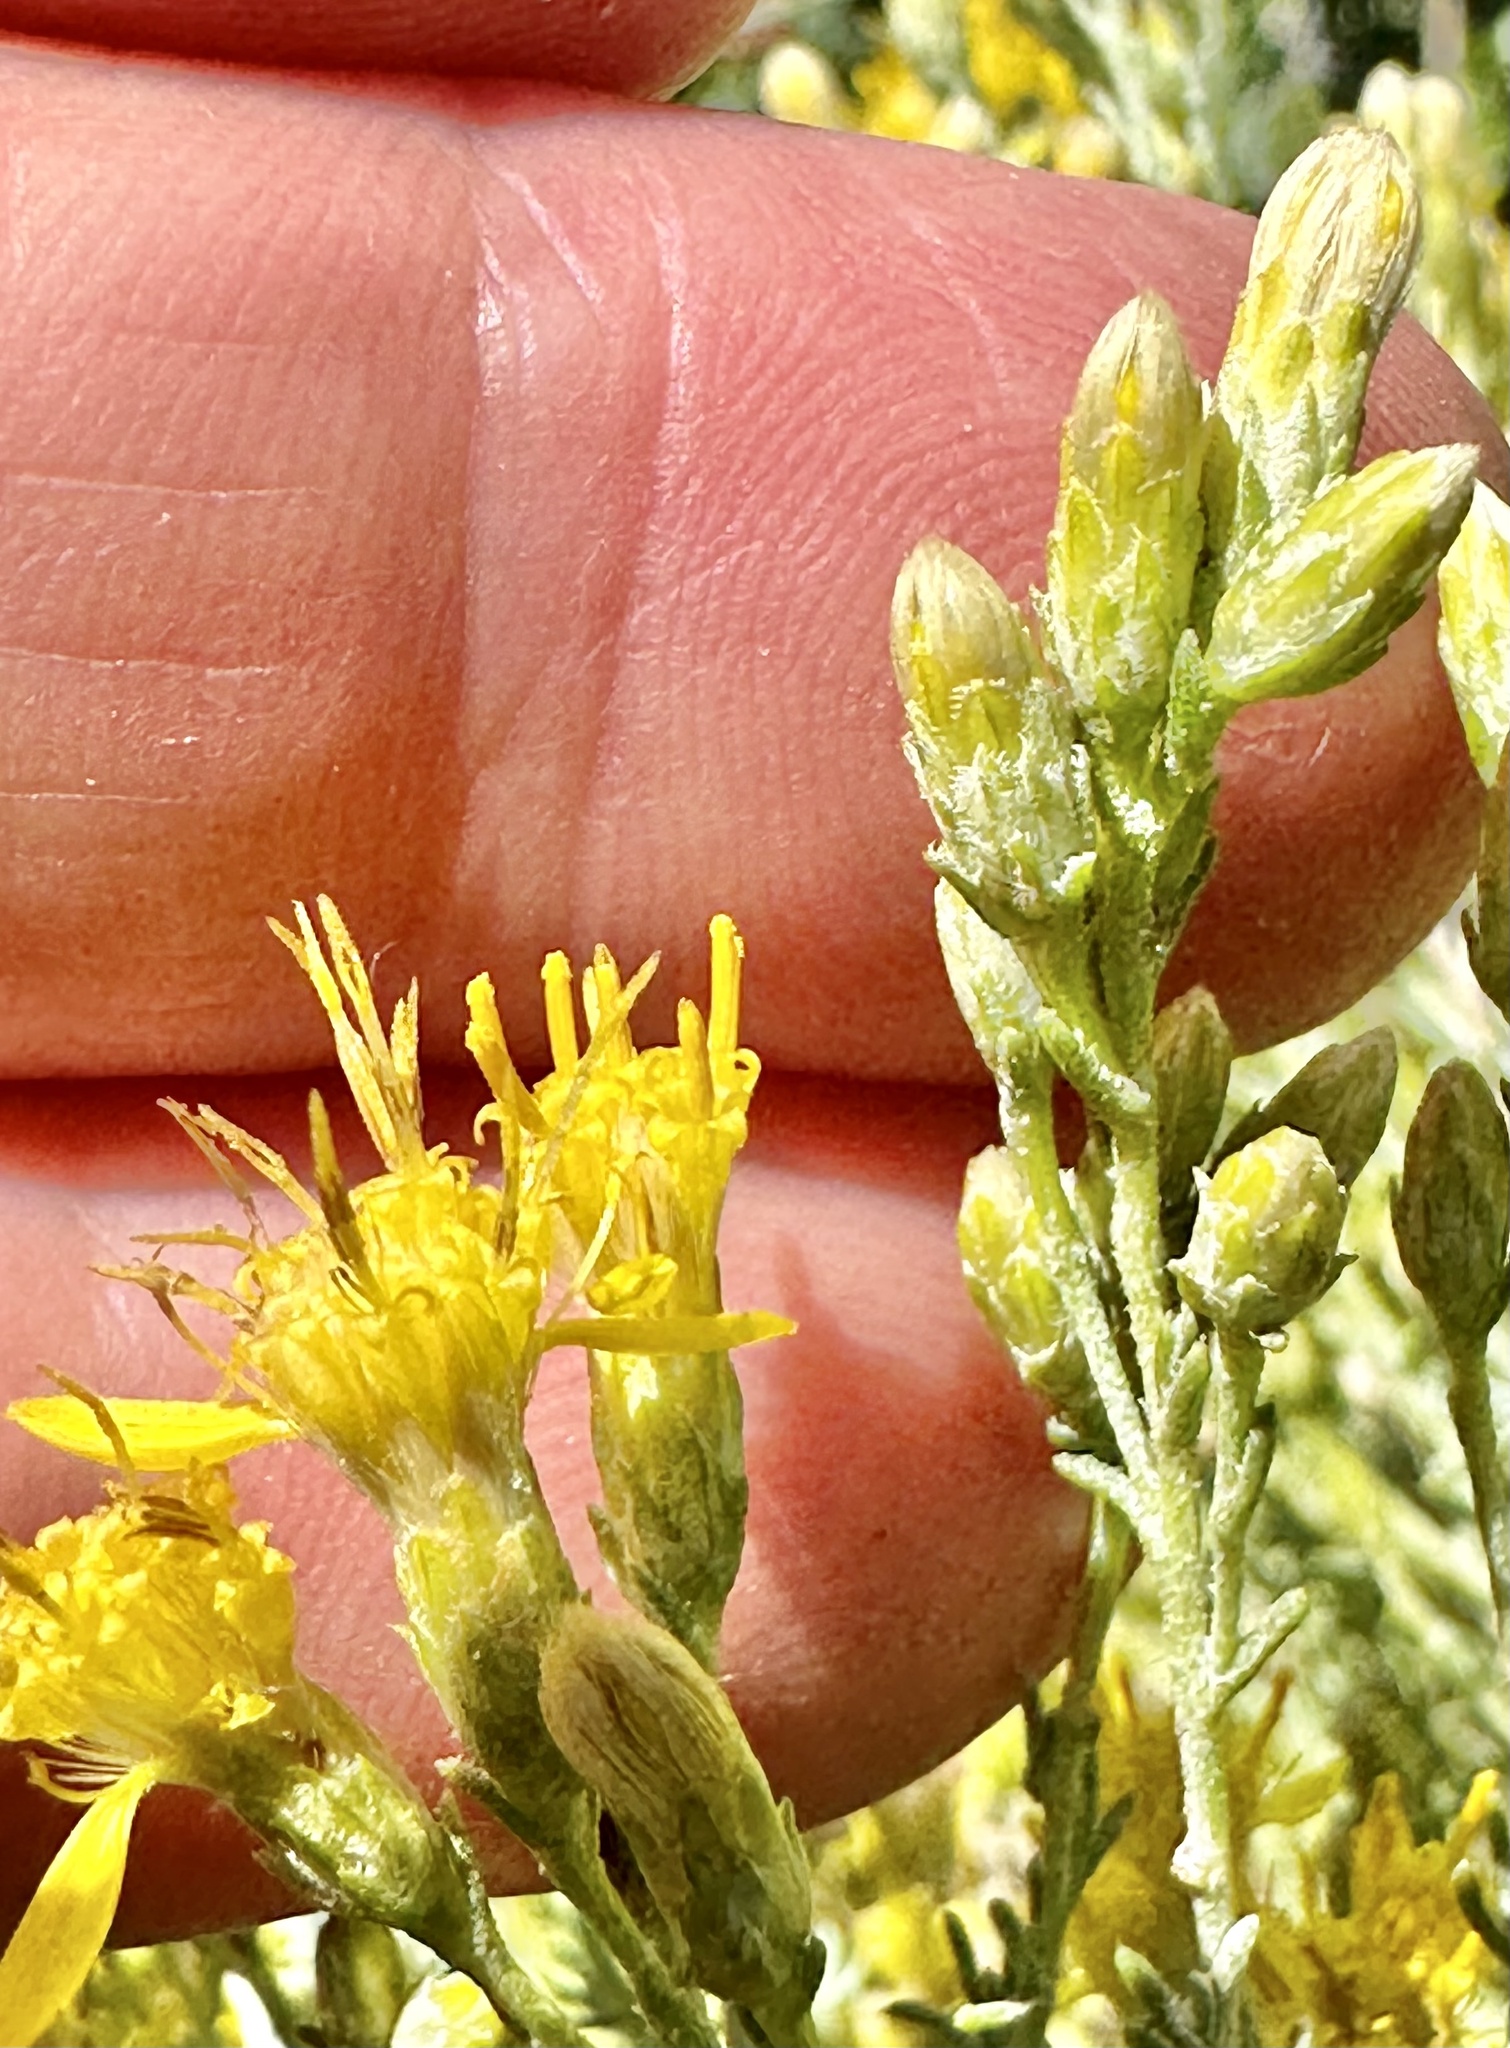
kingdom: Plantae
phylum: Tracheophyta
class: Magnoliopsida
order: Asterales
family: Asteraceae
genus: Ericameria
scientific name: Ericameria ericoides
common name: California goldenbush
